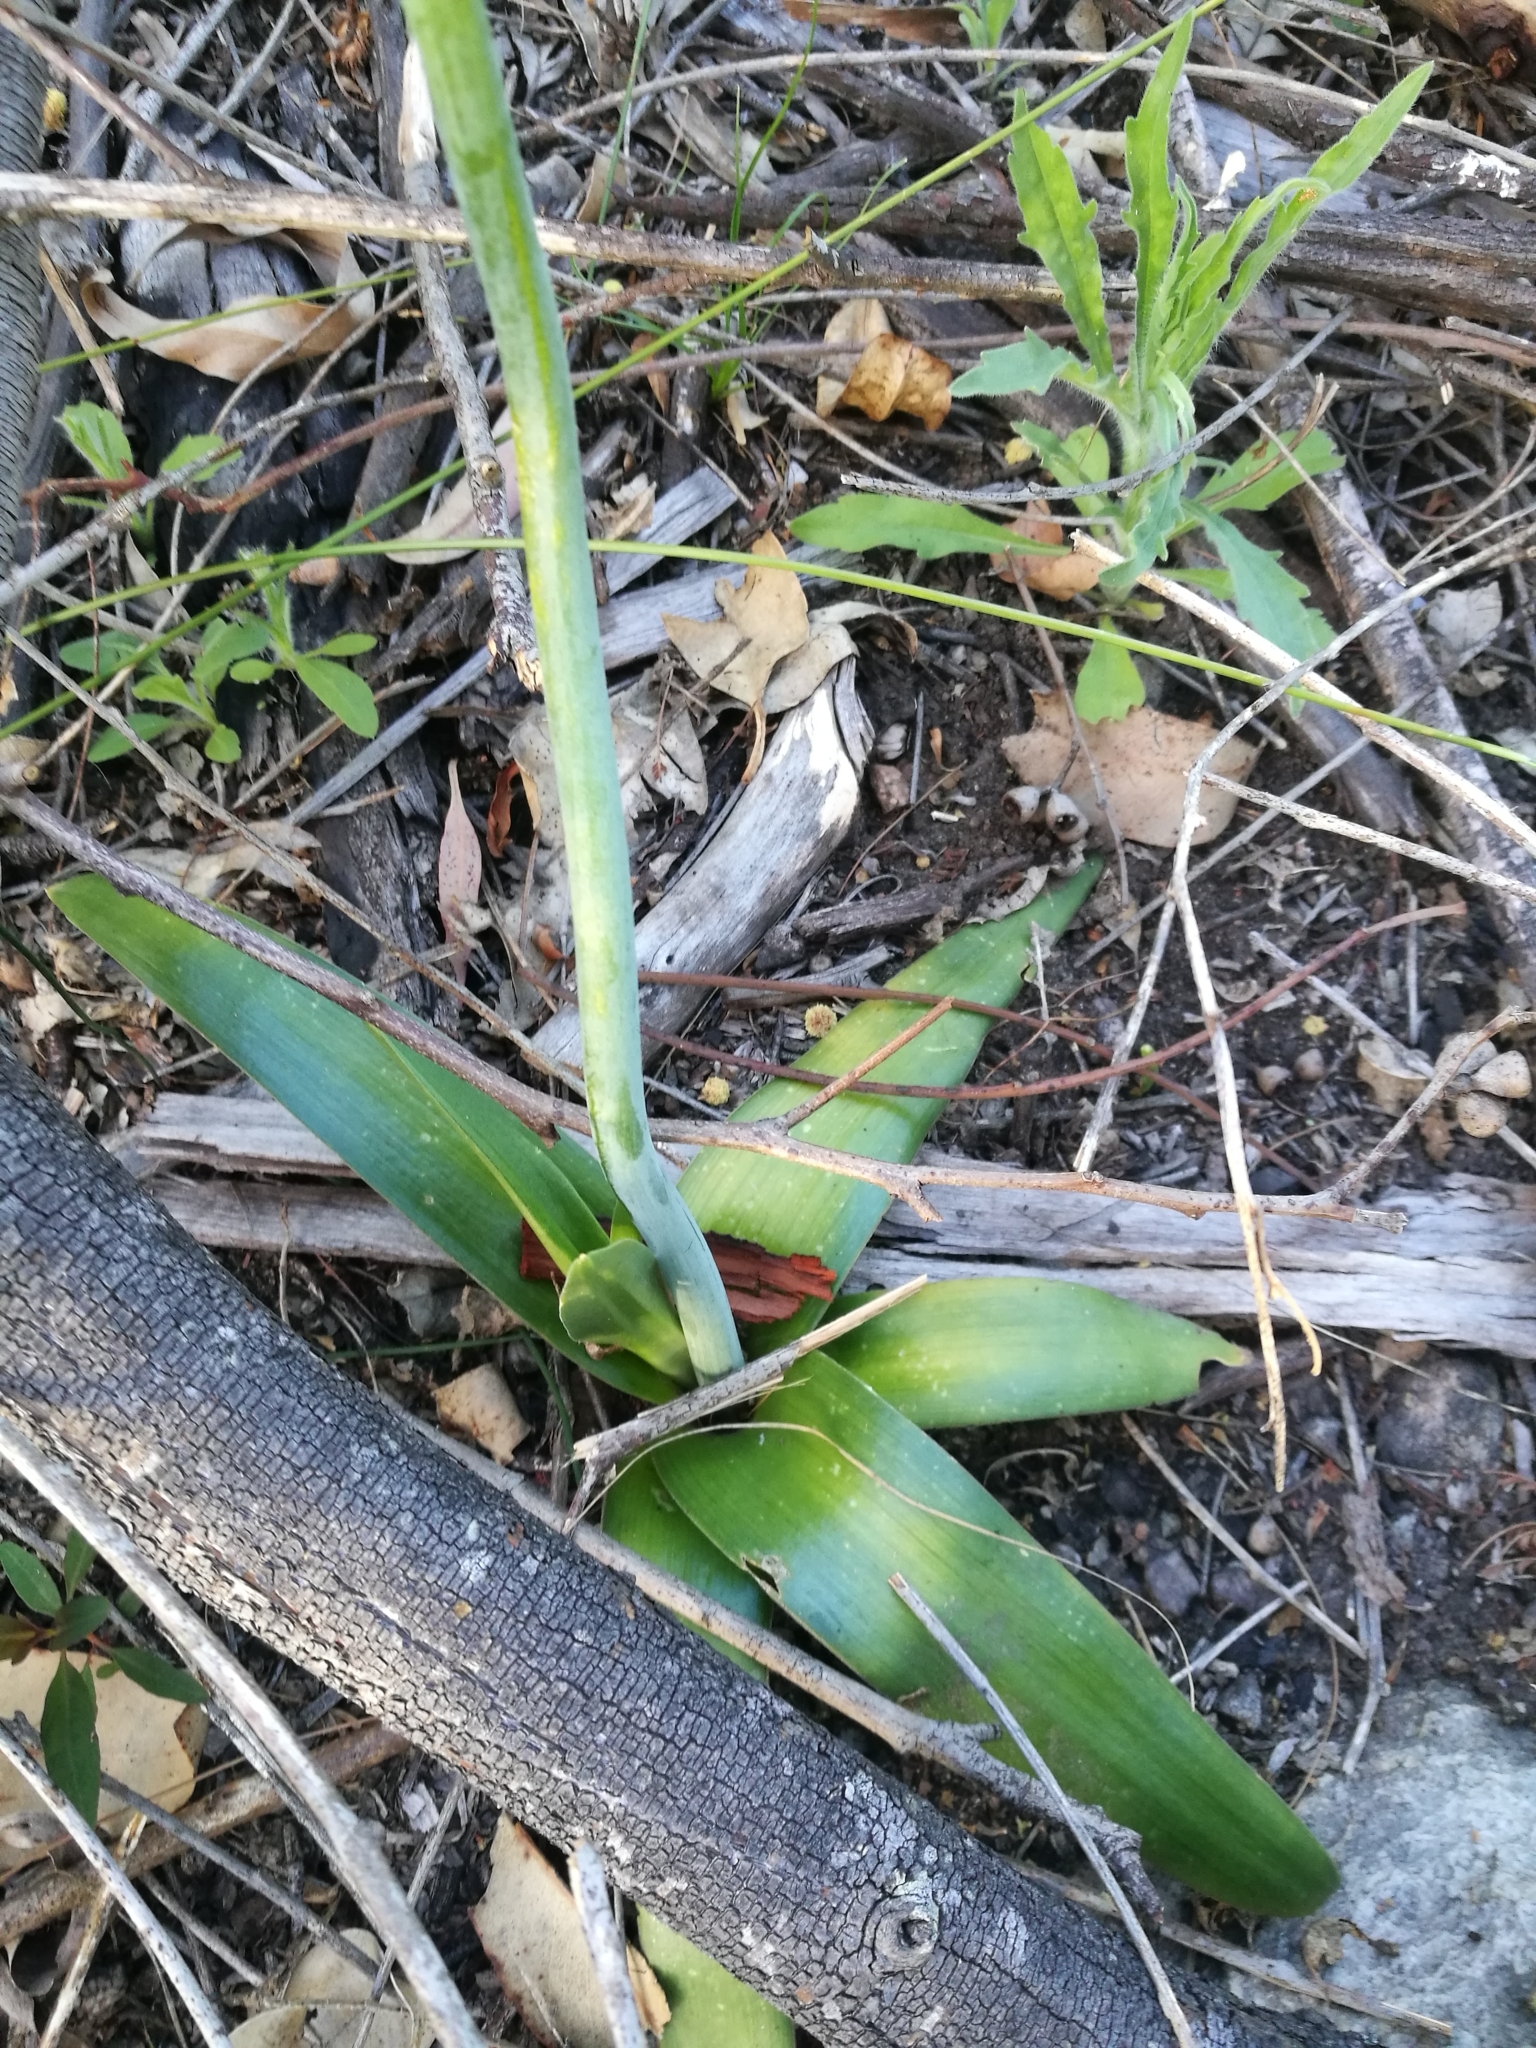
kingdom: Plantae
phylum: Tracheophyta
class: Liliopsida
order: Asparagales
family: Asparagaceae
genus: Ornithogalum
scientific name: Ornithogalum dubium
